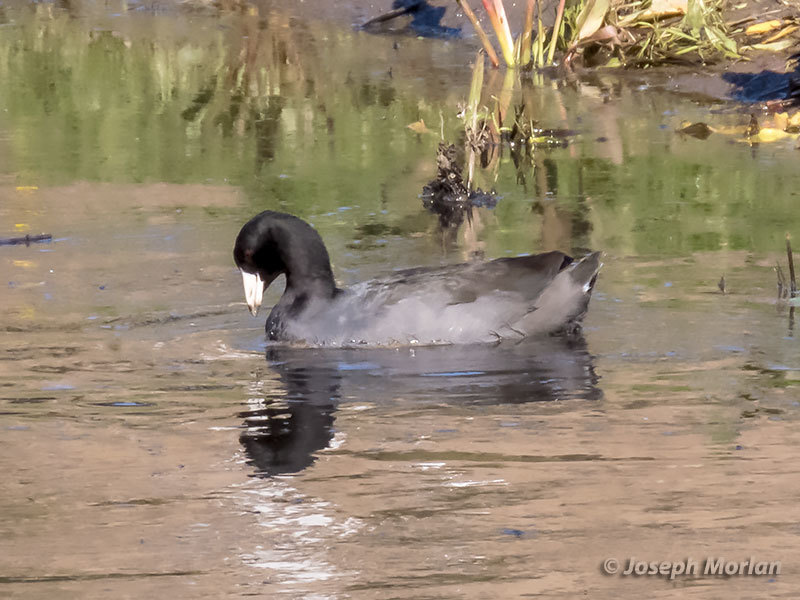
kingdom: Animalia
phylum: Chordata
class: Aves
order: Gruiformes
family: Rallidae
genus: Fulica
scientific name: Fulica americana
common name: American coot
